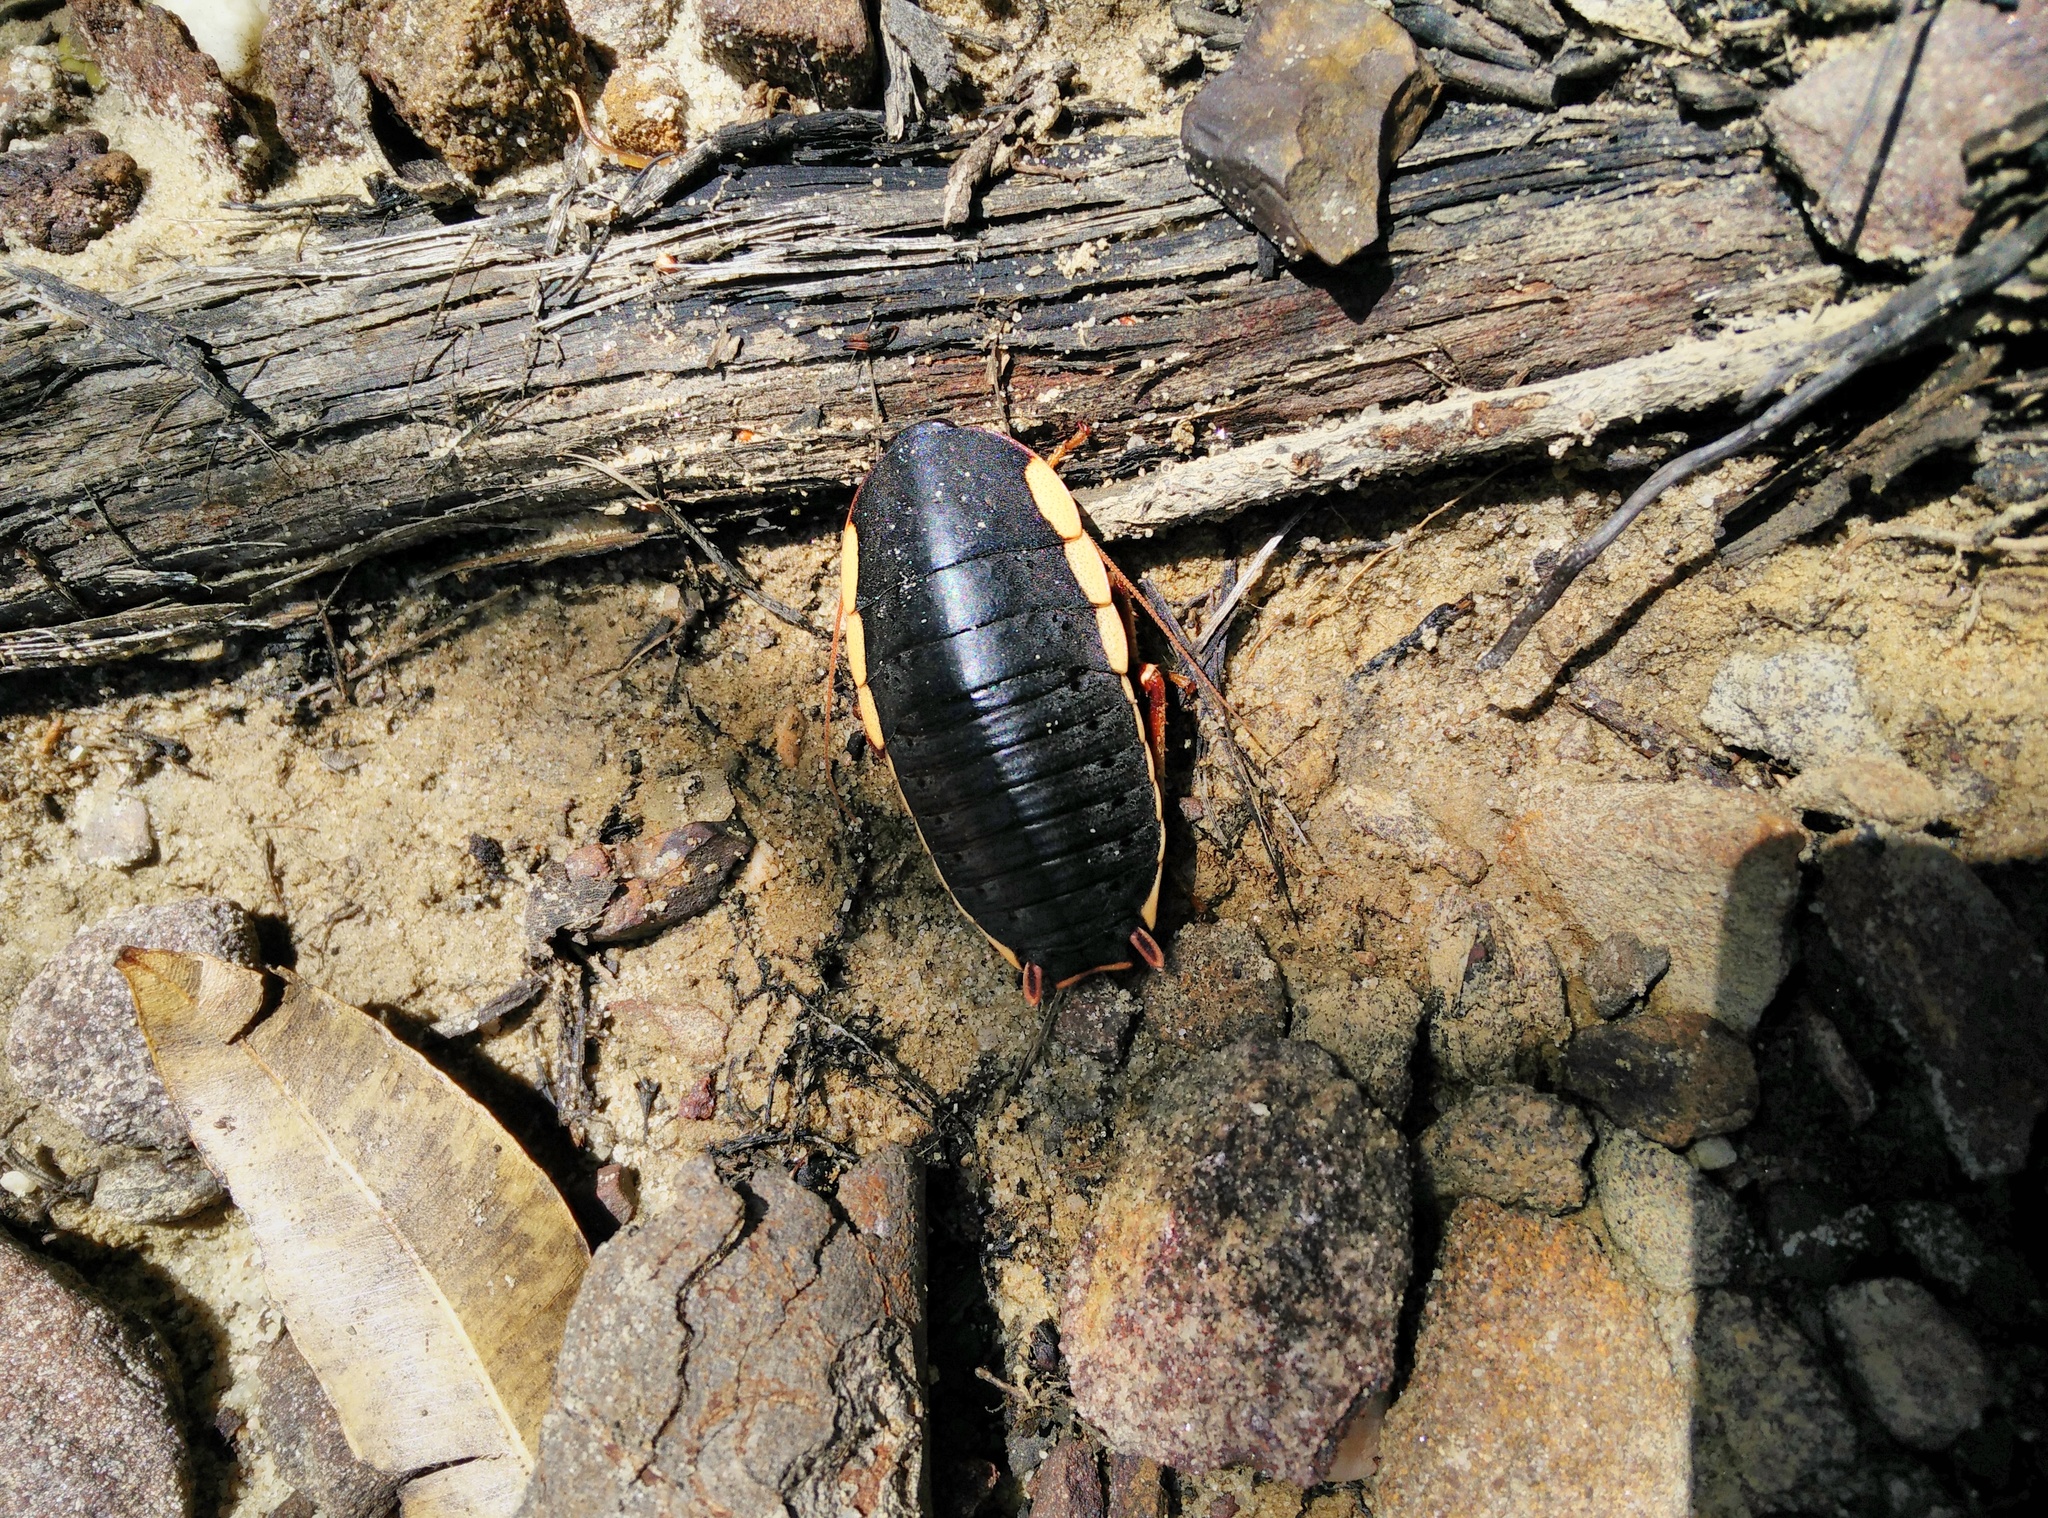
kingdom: Animalia
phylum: Arthropoda
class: Insecta
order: Blattodea
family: Blattidae
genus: Polyzosteria
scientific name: Polyzosteria limbata
